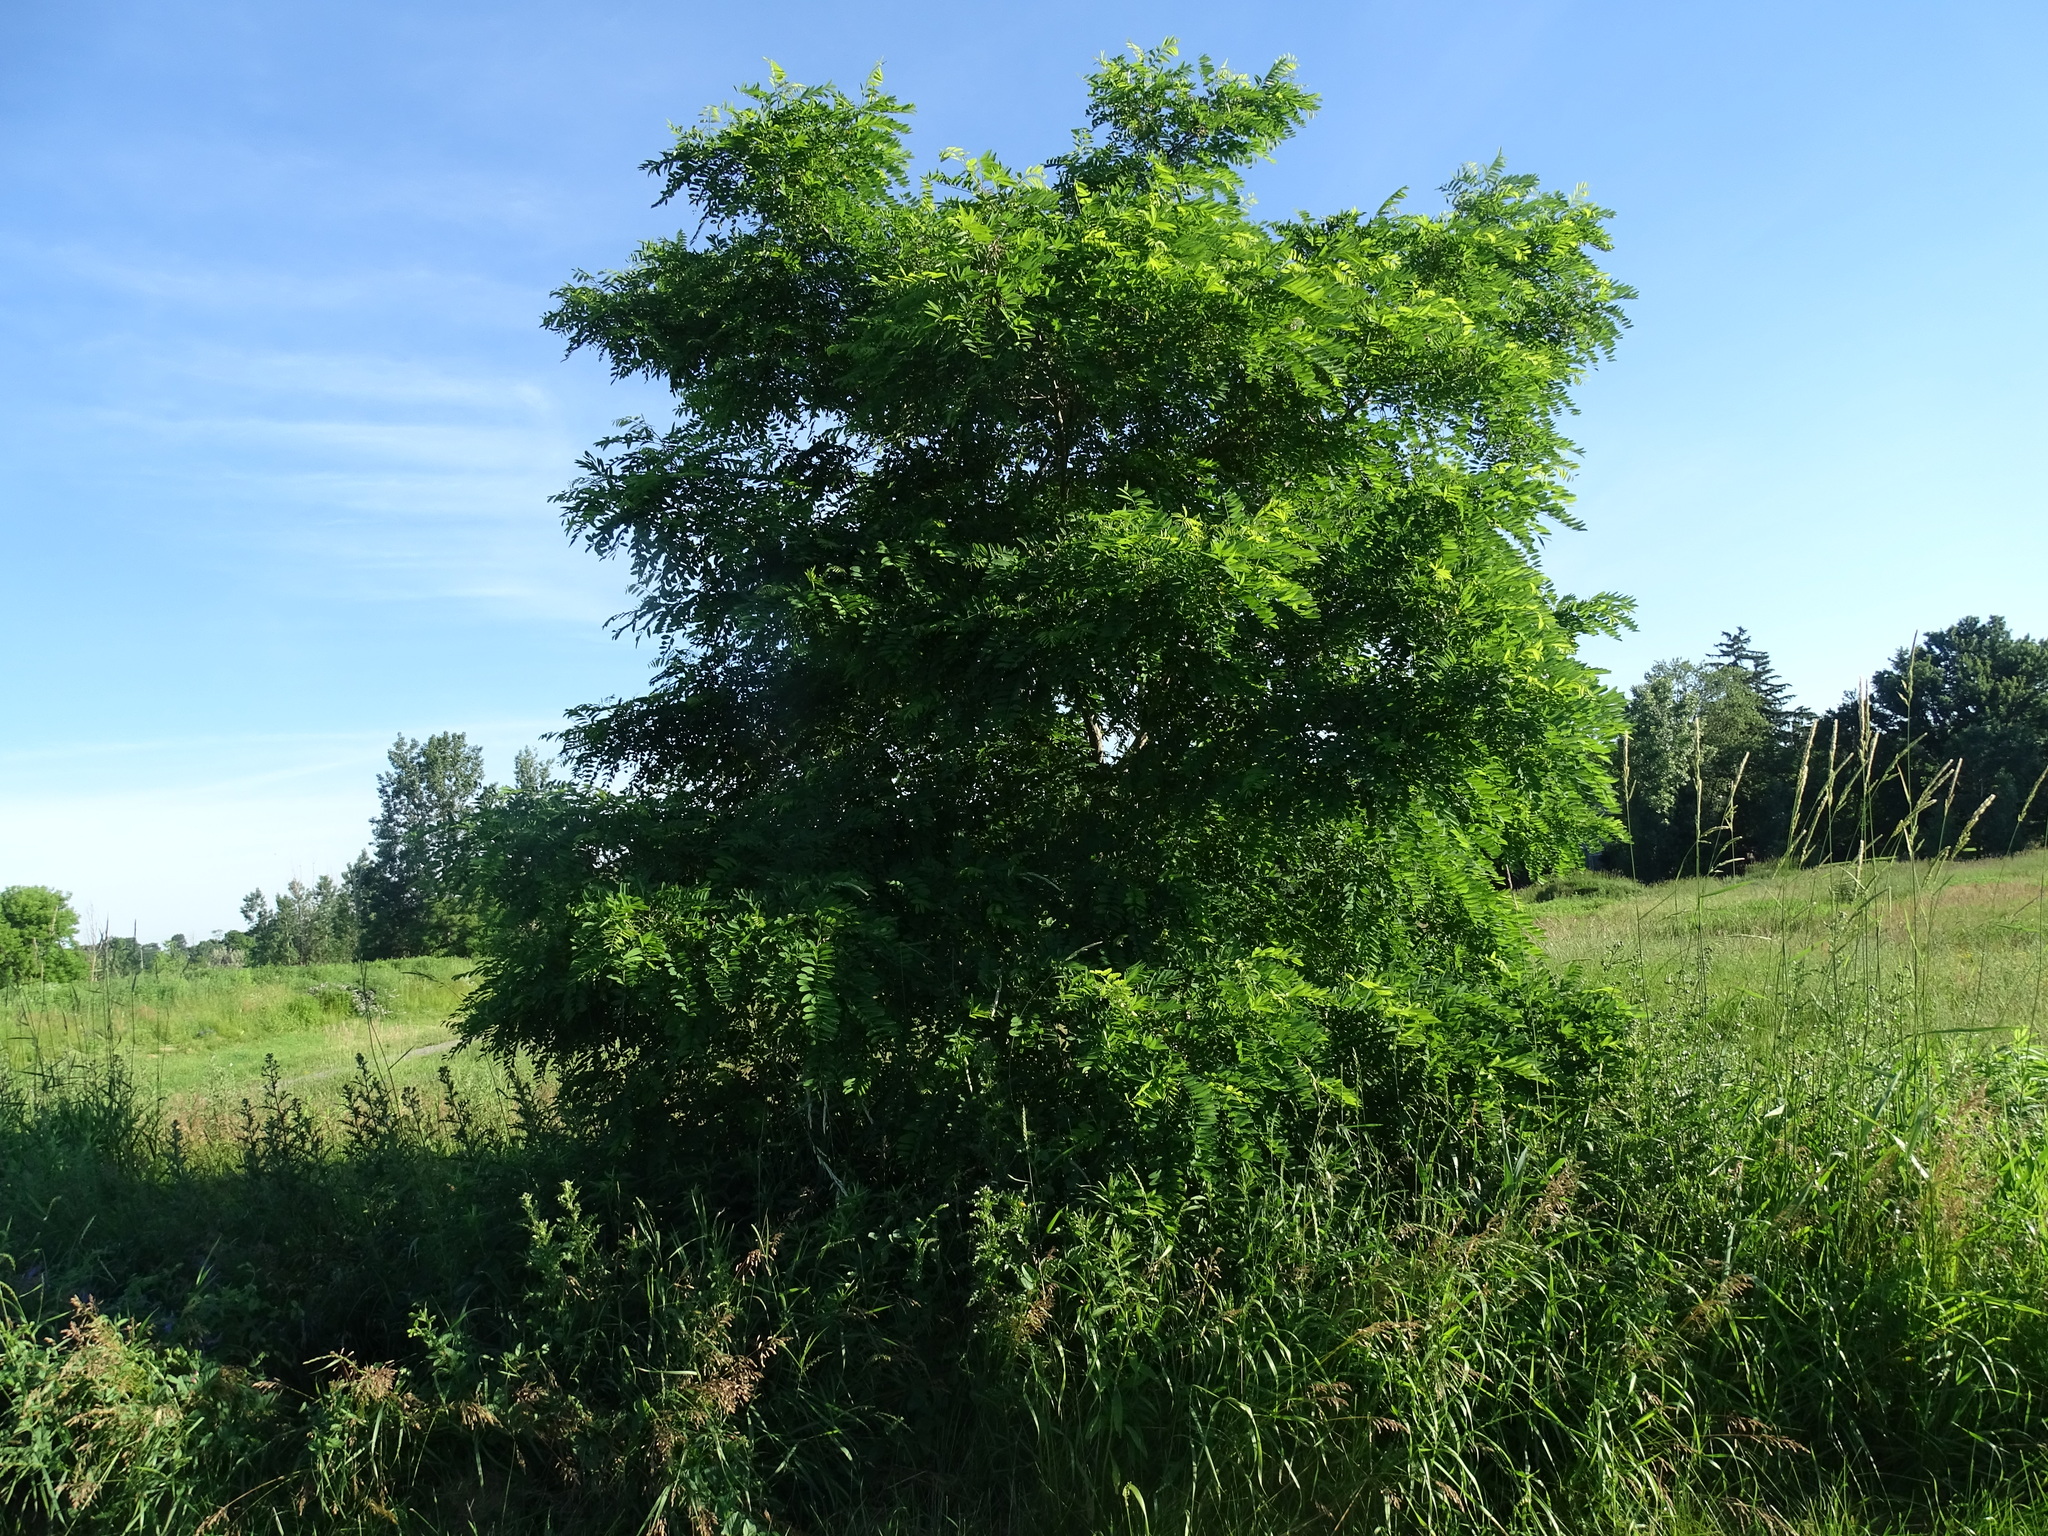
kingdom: Plantae
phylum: Tracheophyta
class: Magnoliopsida
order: Fabales
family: Fabaceae
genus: Robinia
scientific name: Robinia pseudoacacia
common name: Black locust
